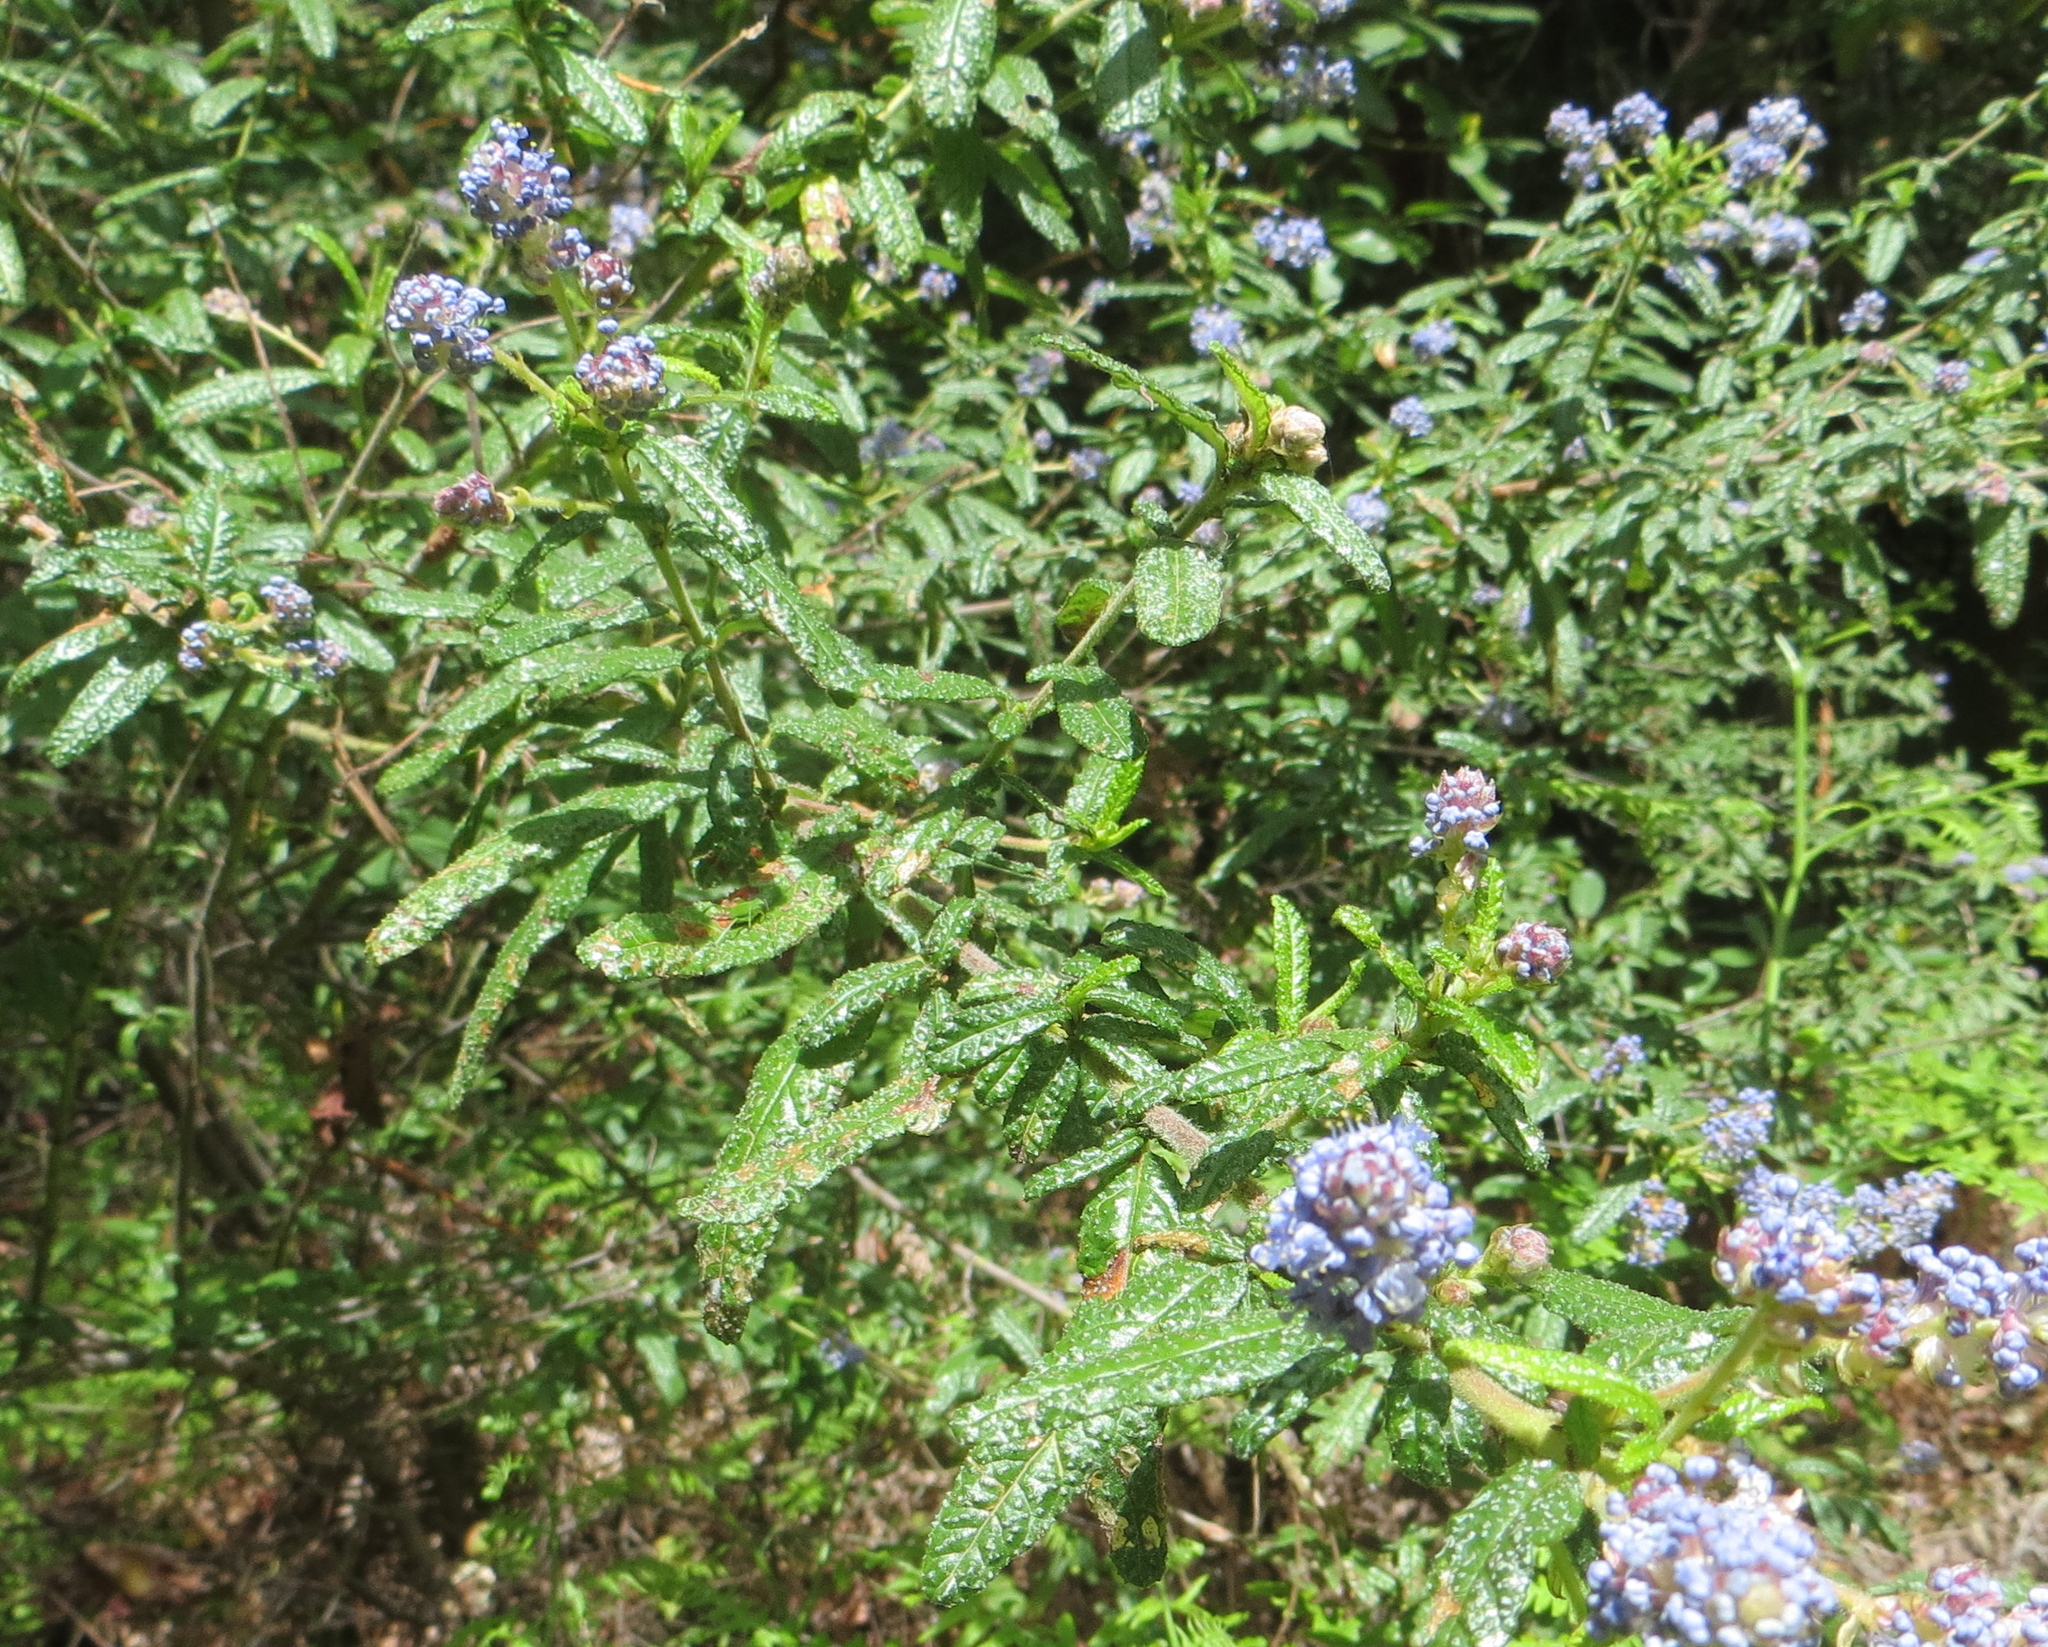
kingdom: Plantae
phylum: Tracheophyta
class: Magnoliopsida
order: Rosales
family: Rhamnaceae
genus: Ceanothus
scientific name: Ceanothus papillosus
